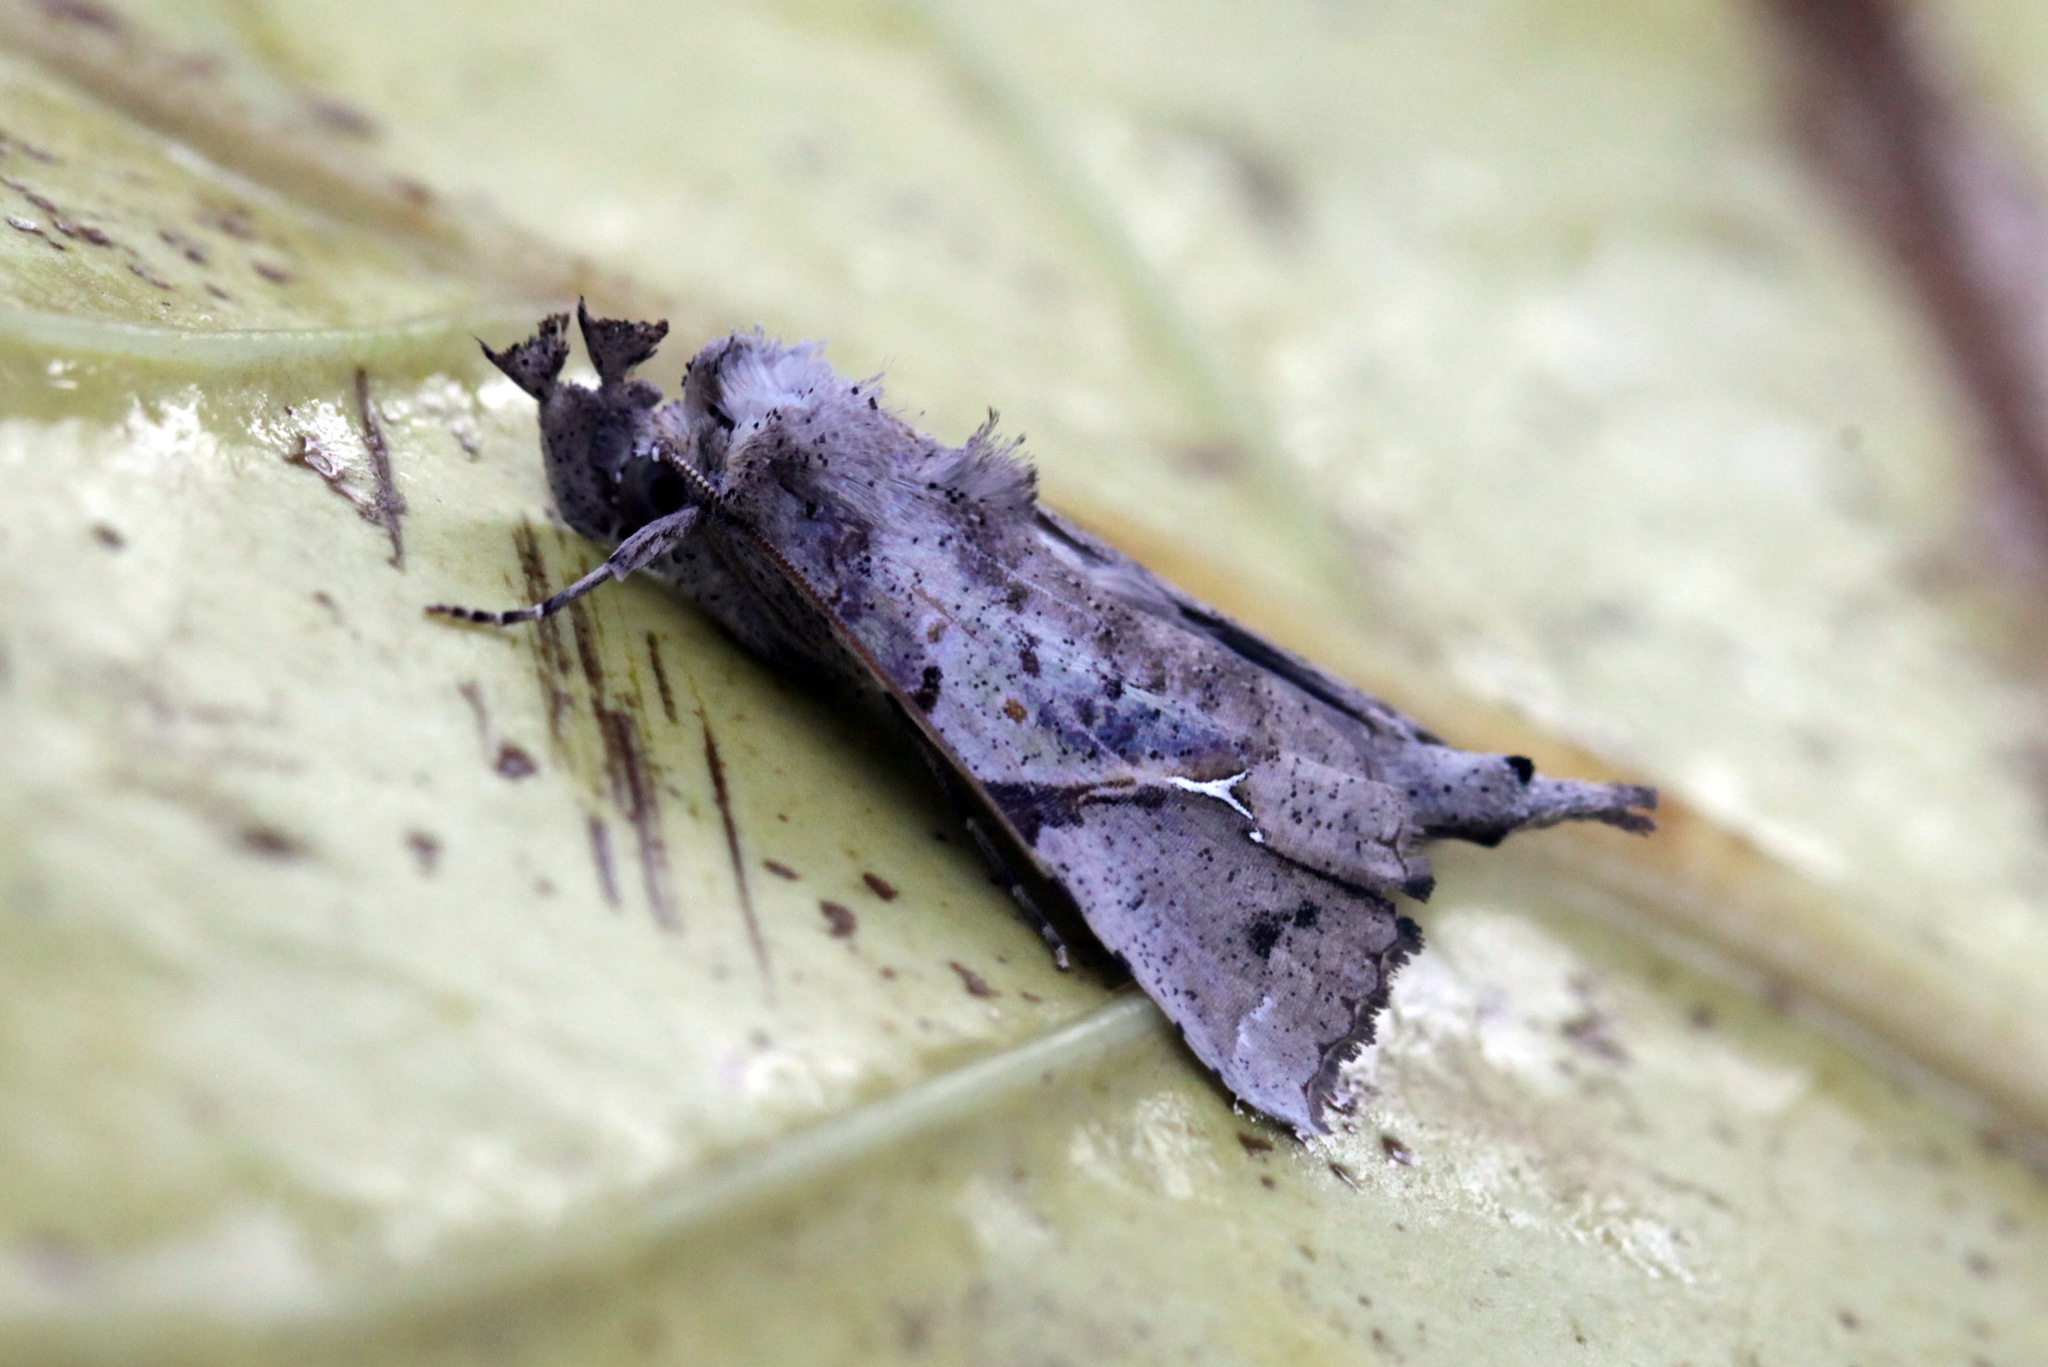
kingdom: Animalia
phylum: Arthropoda
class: Insecta
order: Lepidoptera
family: Erebidae
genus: Meliaba
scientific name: Meliaba pelopsalis
